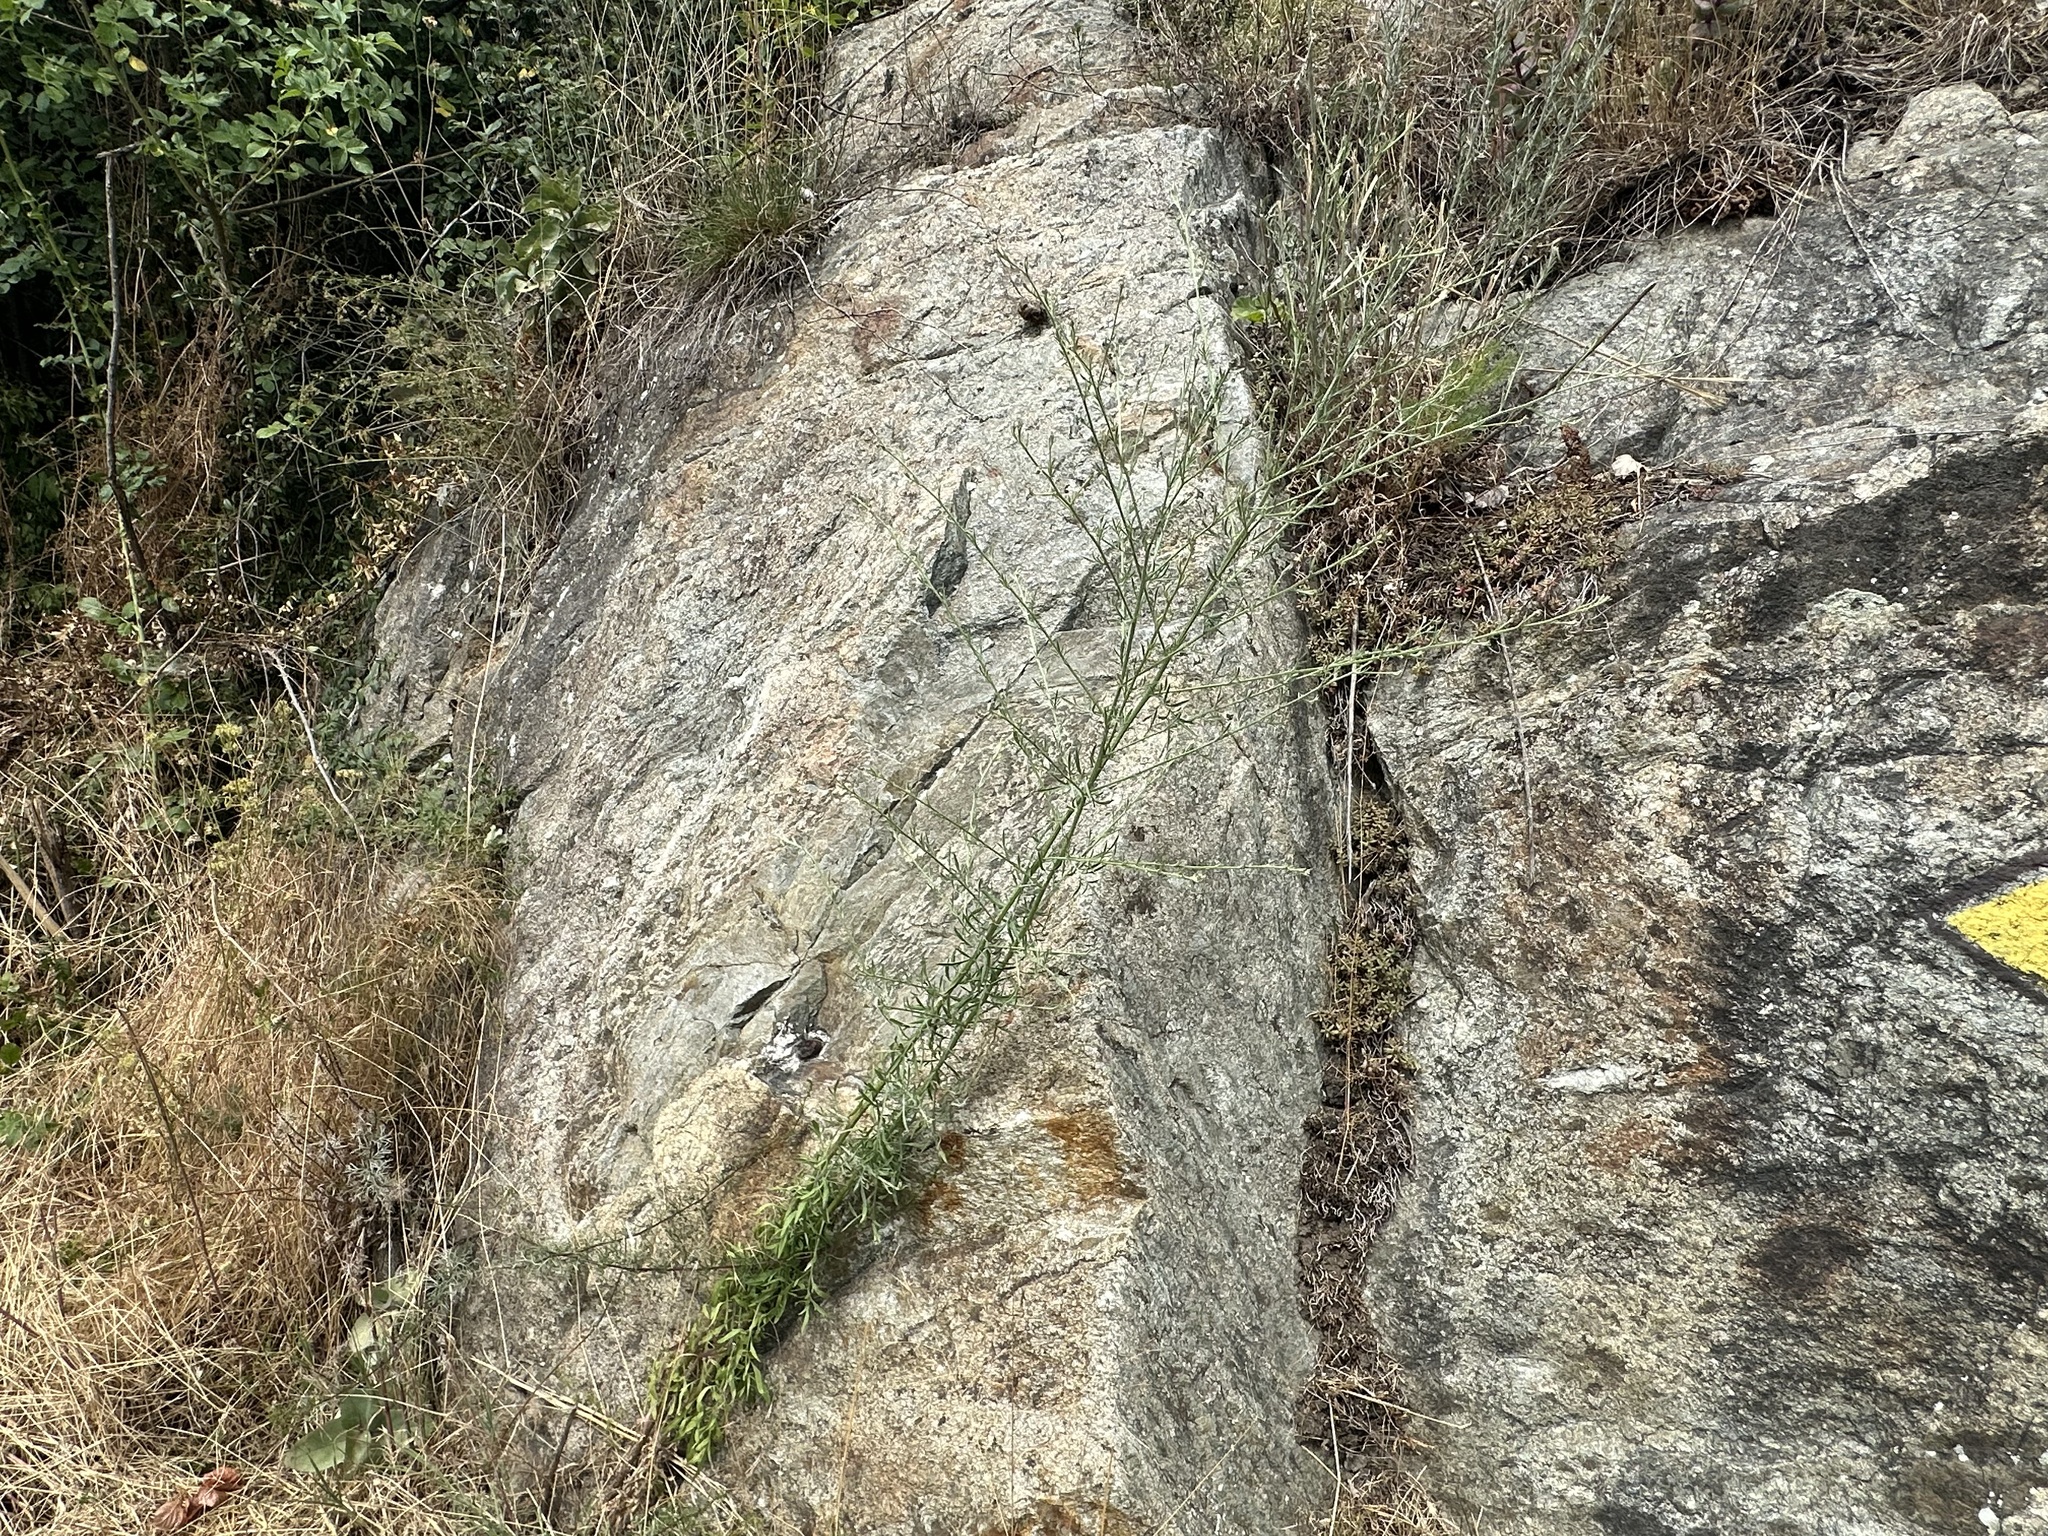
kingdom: Plantae
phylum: Tracheophyta
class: Magnoliopsida
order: Asterales
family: Asteraceae
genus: Centaurea
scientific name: Centaurea vallesiaca
